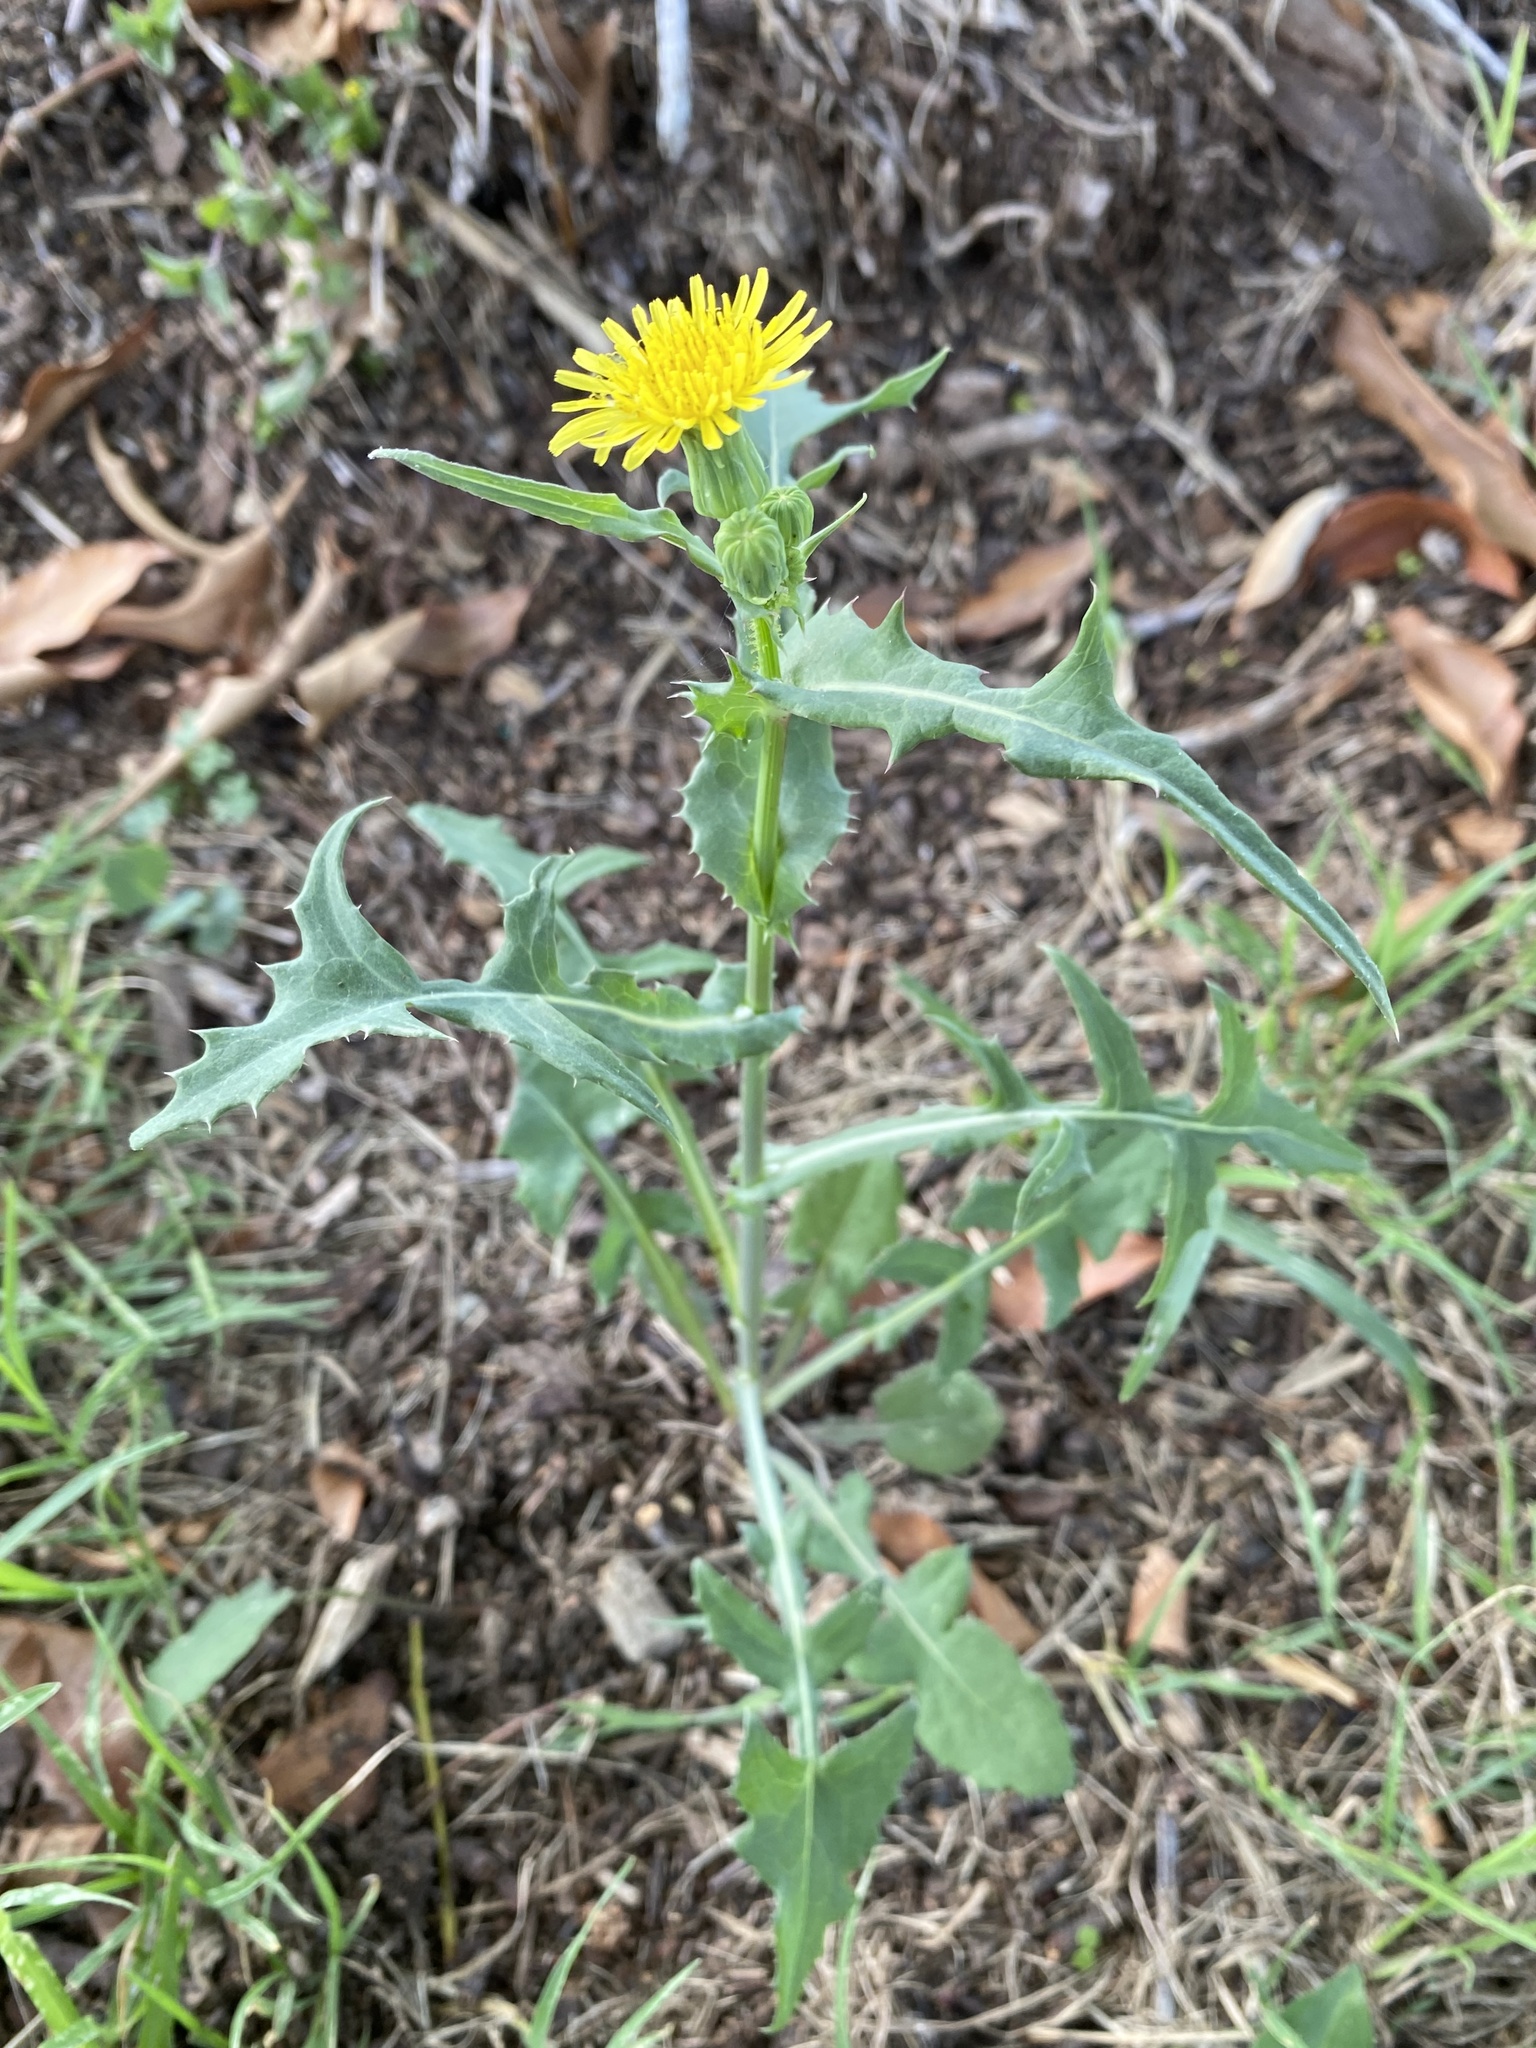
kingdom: Plantae
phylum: Tracheophyta
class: Magnoliopsida
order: Asterales
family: Asteraceae
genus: Sonchus
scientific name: Sonchus oleraceus
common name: Common sowthistle
